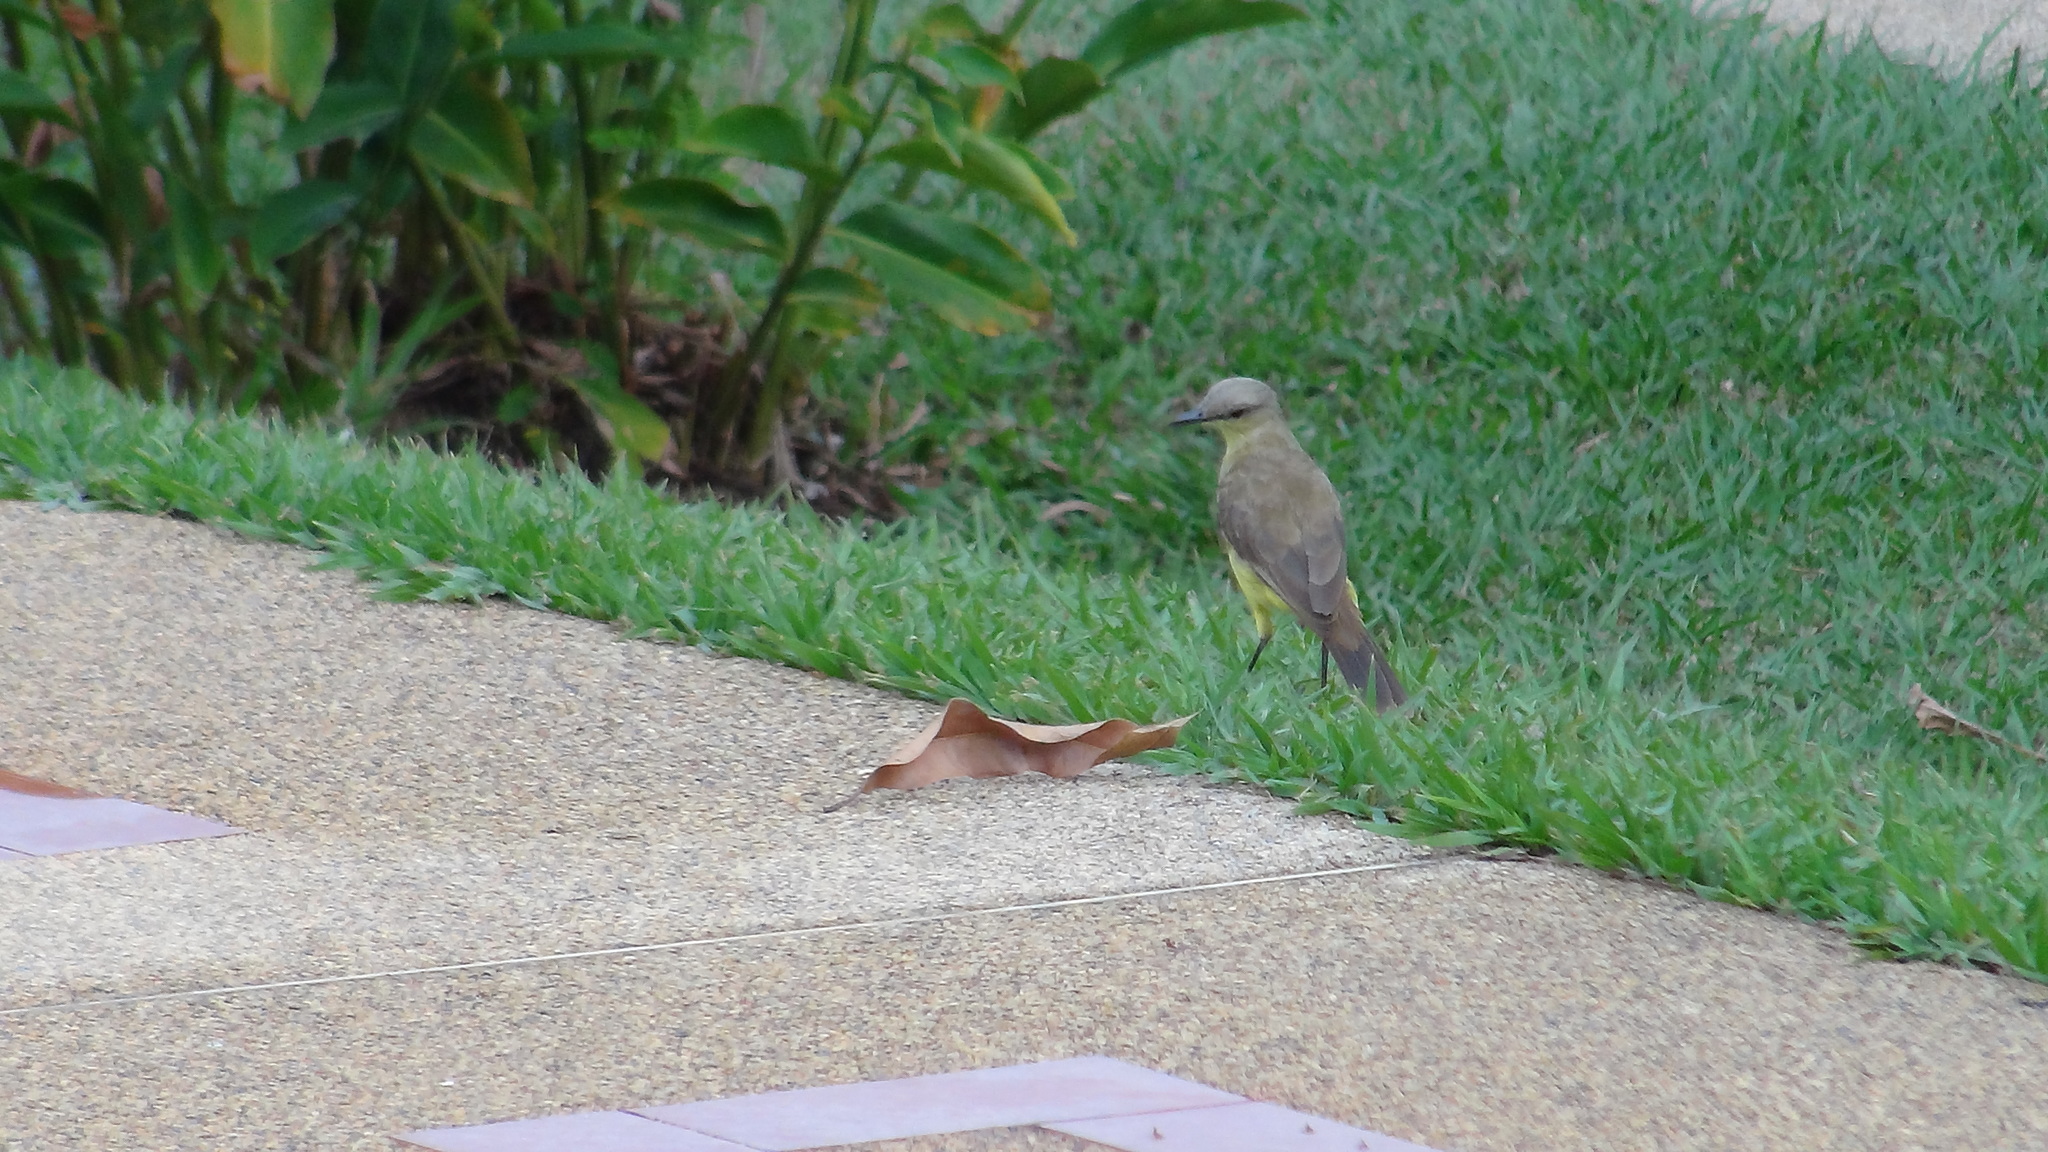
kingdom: Animalia
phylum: Chordata
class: Aves
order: Passeriformes
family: Tyrannidae
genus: Machetornis
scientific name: Machetornis rixosa
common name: Cattle tyrant
